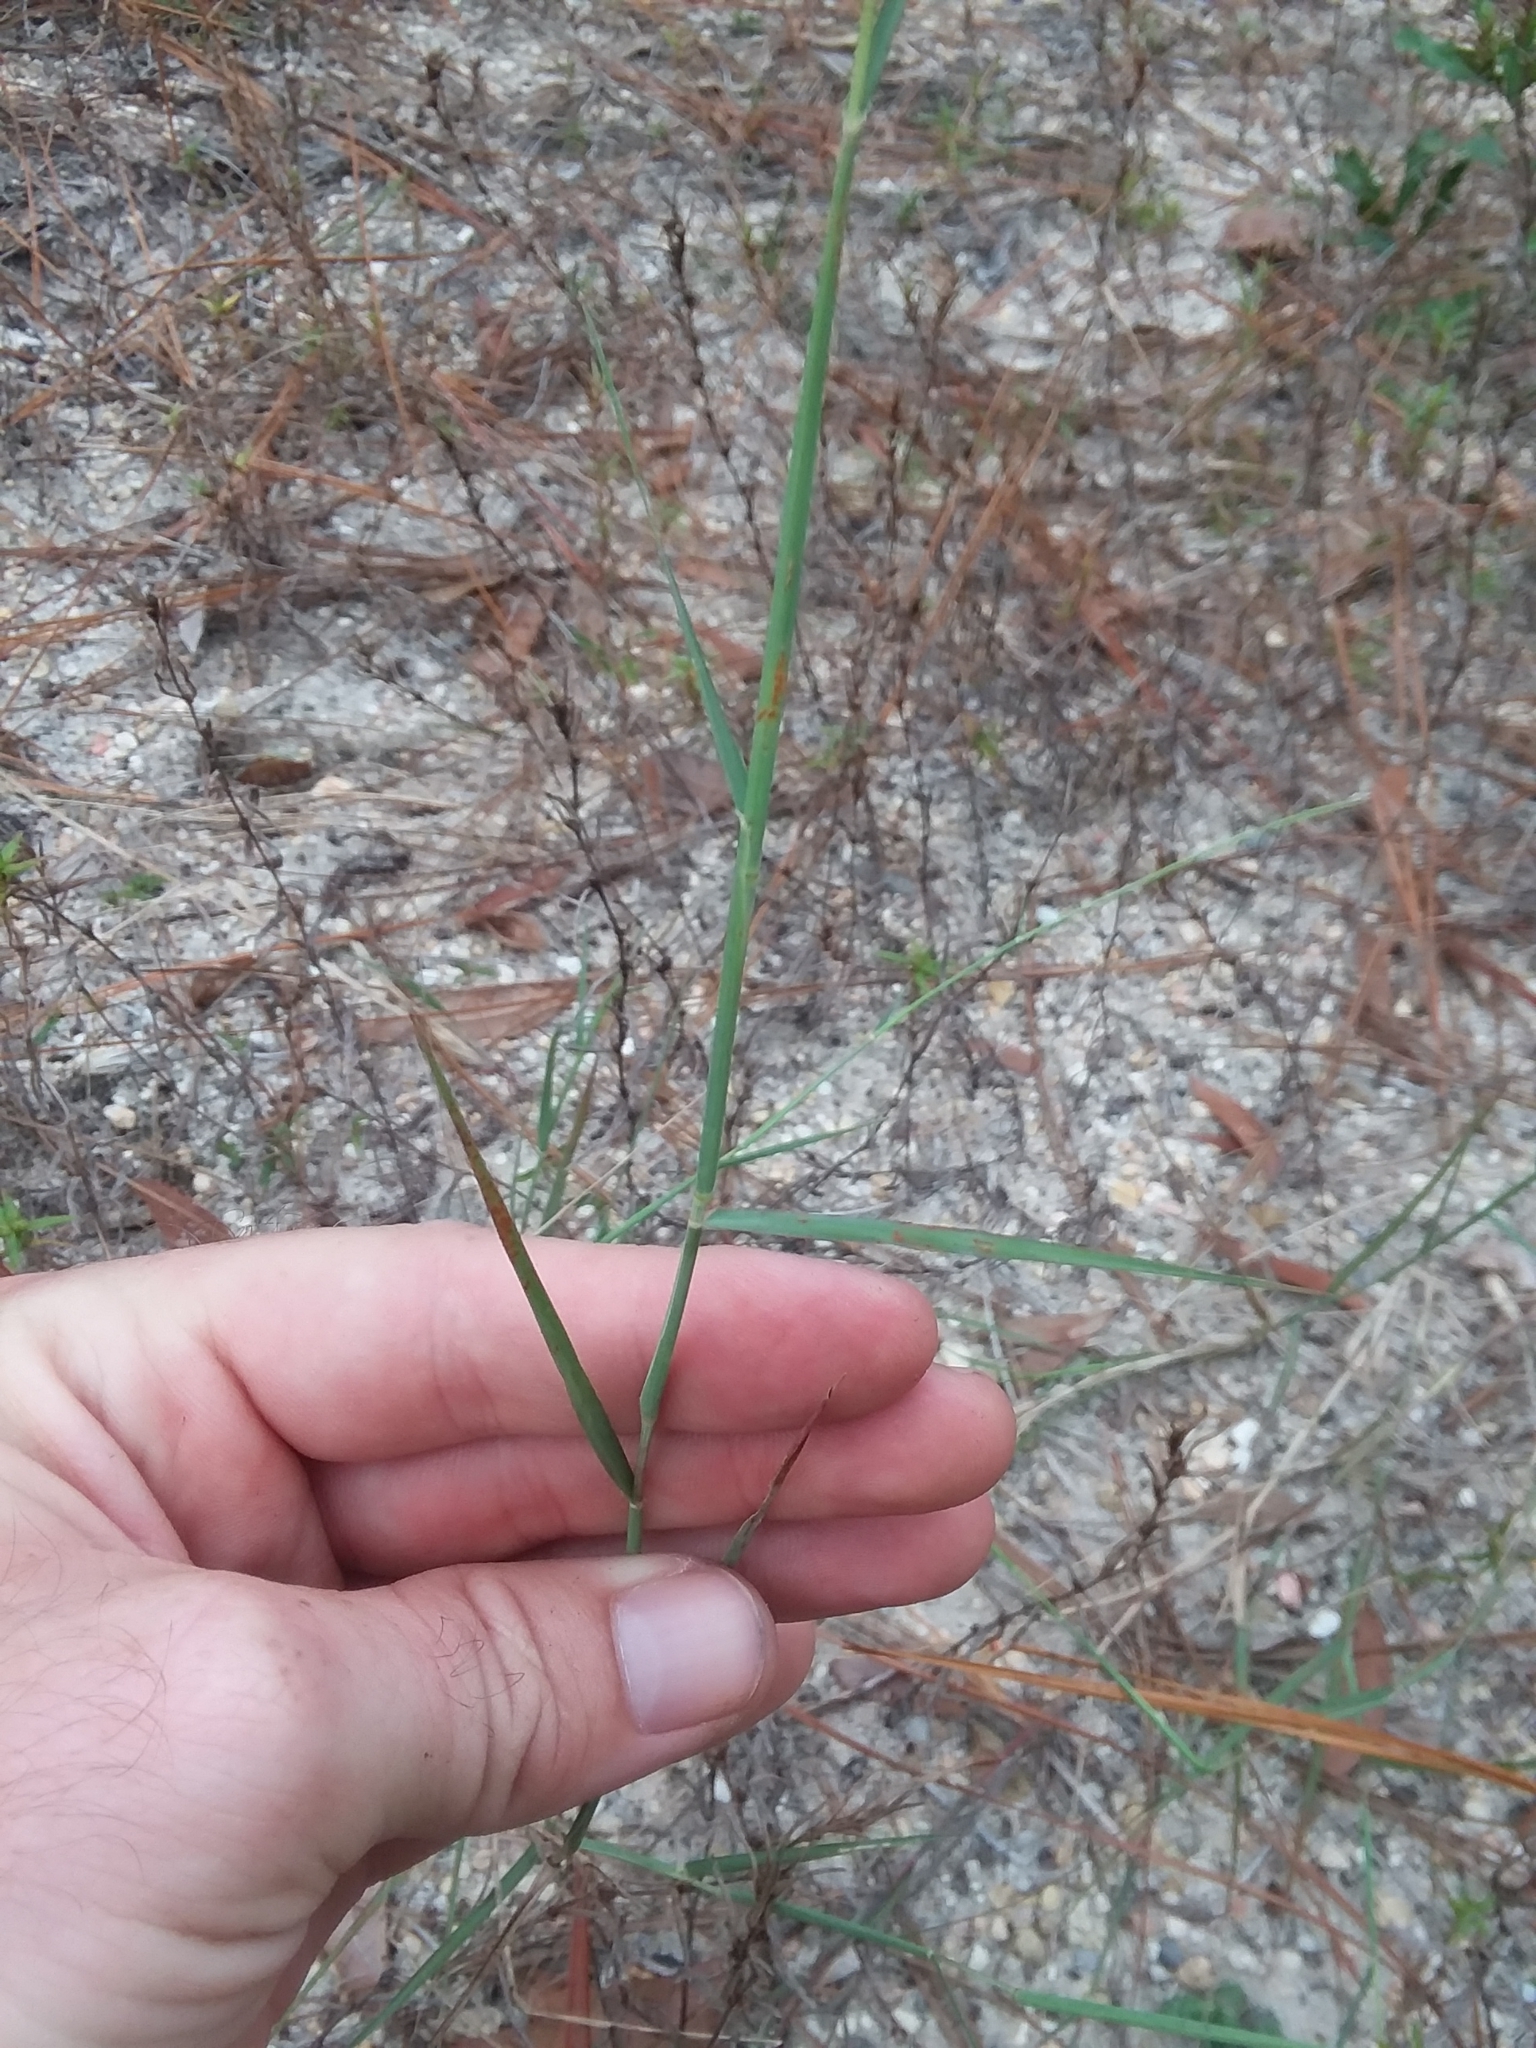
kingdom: Plantae
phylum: Tracheophyta
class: Liliopsida
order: Poales
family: Poaceae
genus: Triplasis
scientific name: Triplasis purpurea
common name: Purple sand grass
